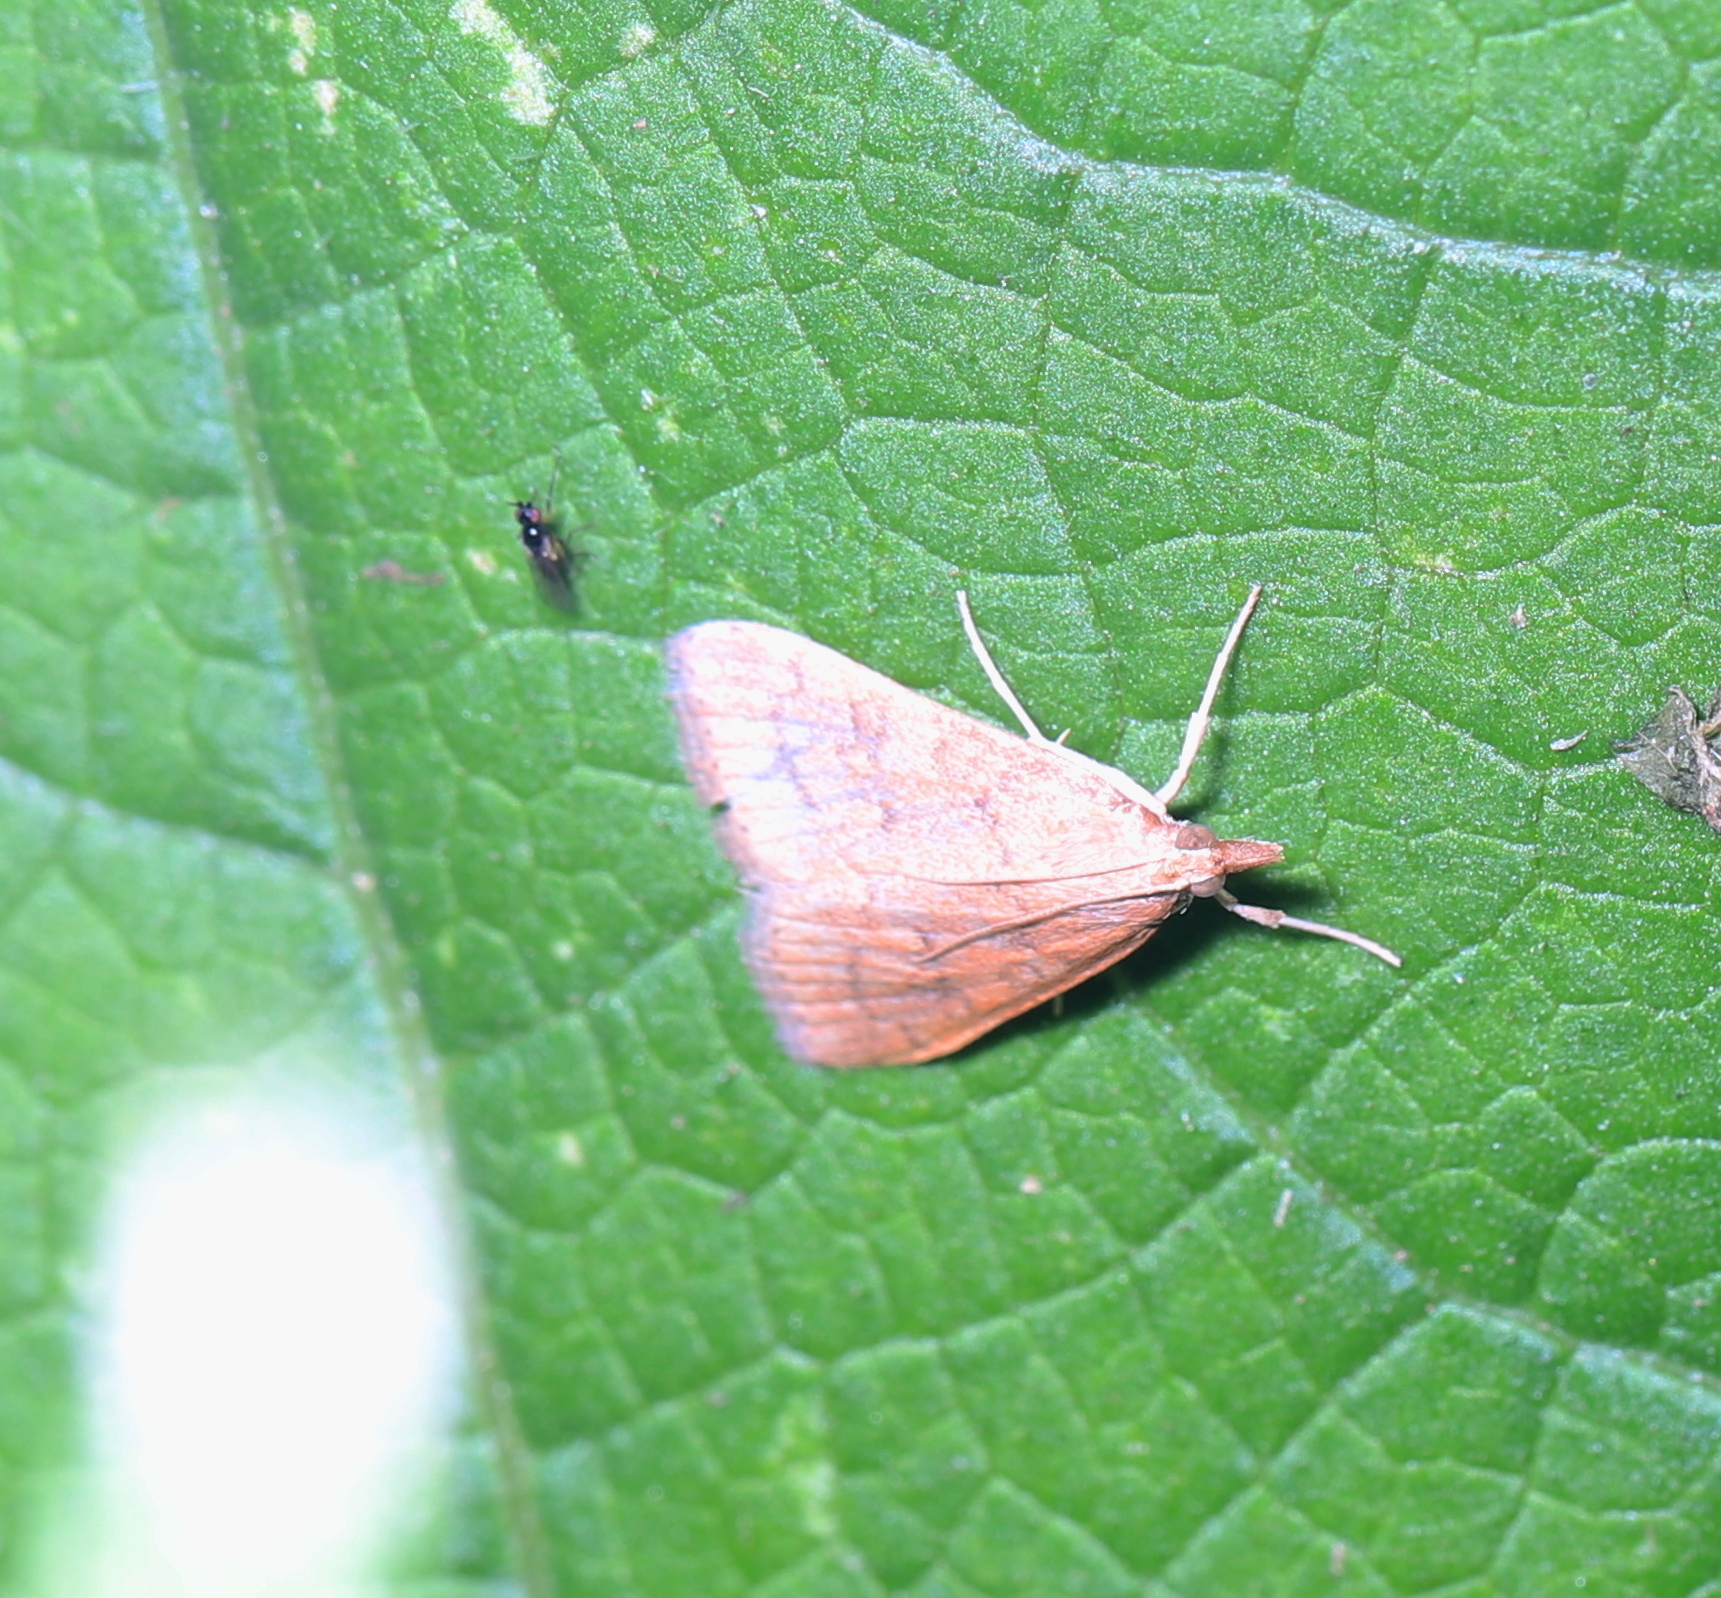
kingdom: Animalia
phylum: Arthropoda
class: Insecta
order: Lepidoptera
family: Crambidae
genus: Udea
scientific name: Udea rubigalis
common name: Celery leaftier moth
